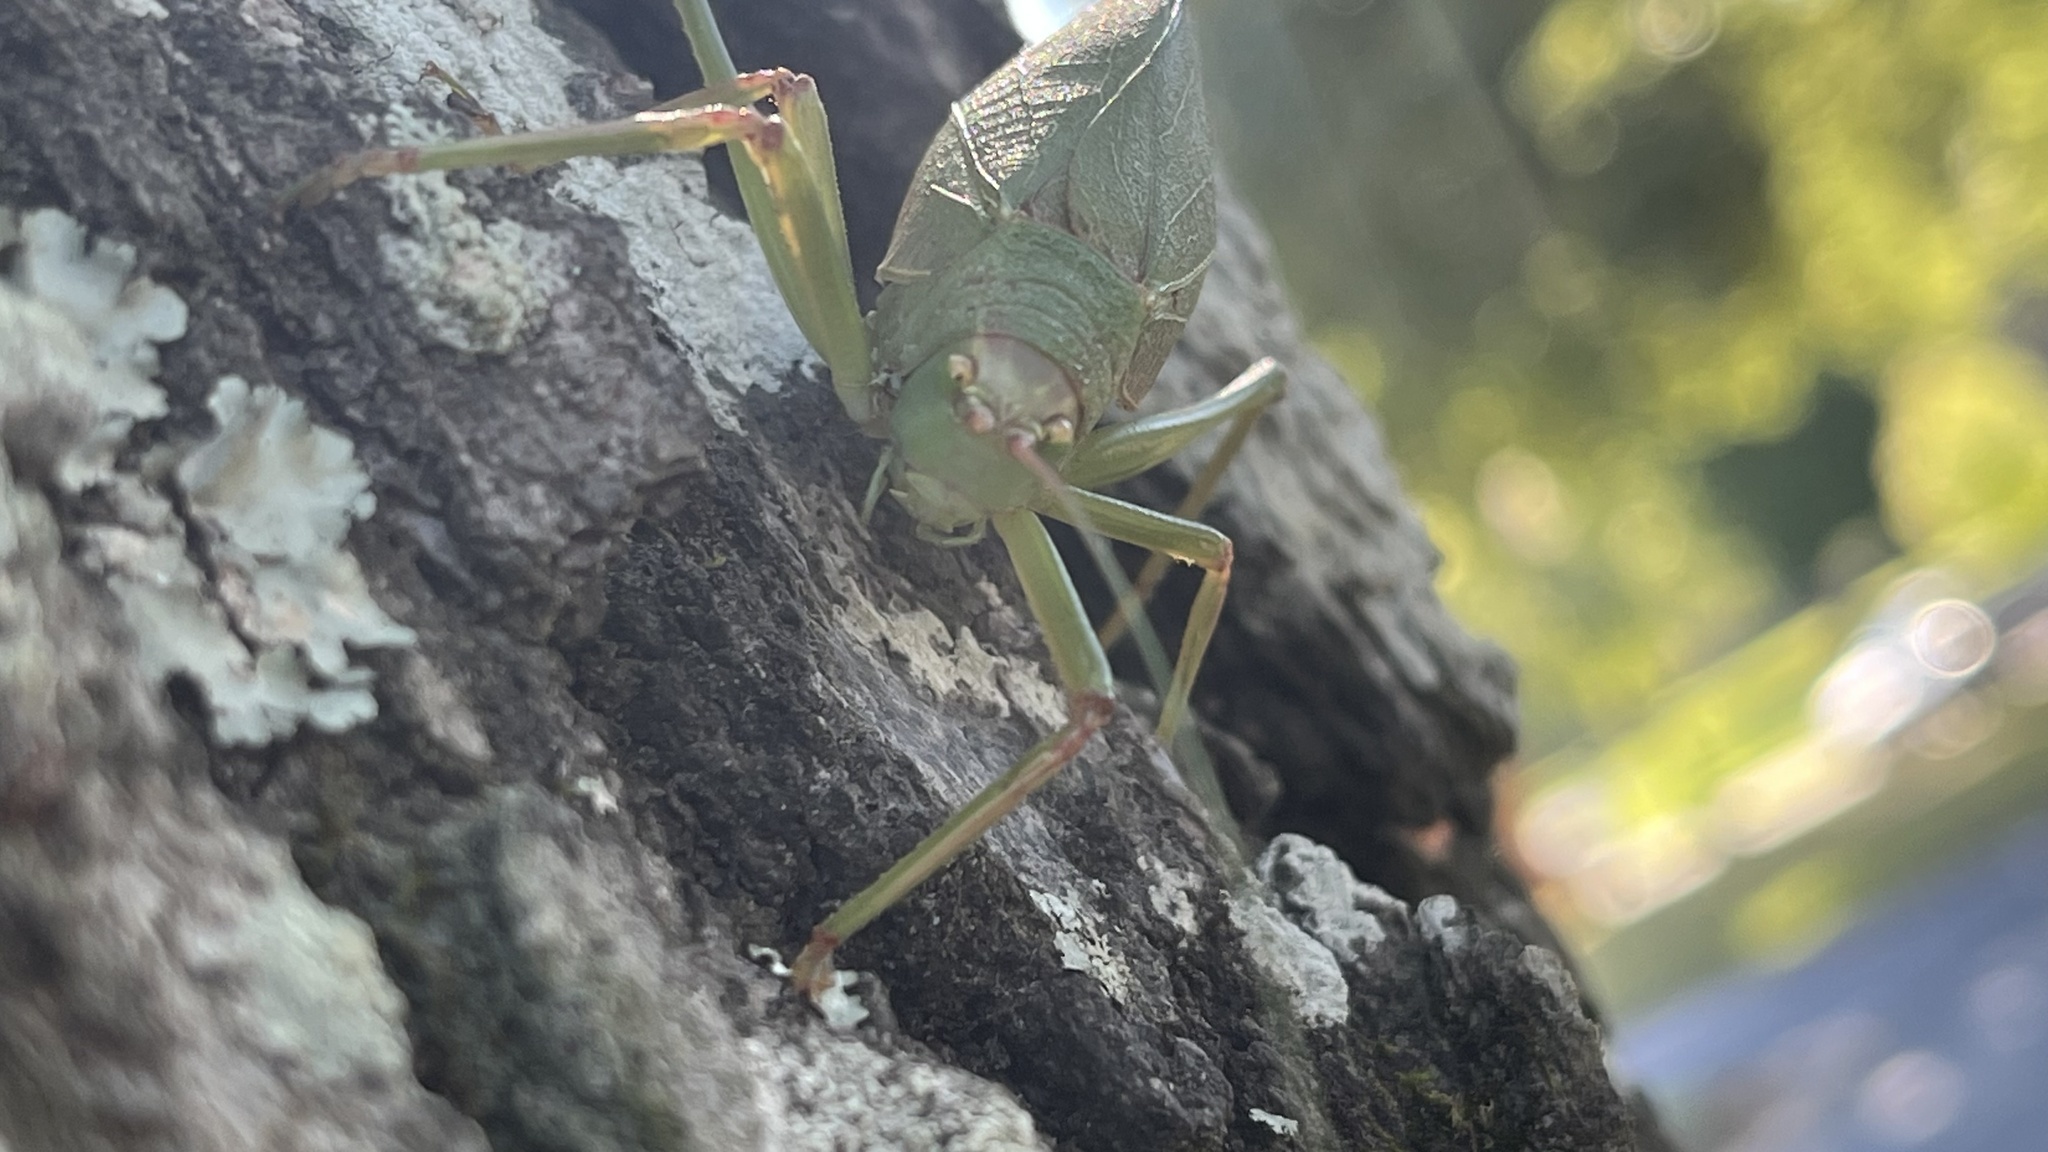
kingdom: Animalia
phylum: Arthropoda
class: Insecta
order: Orthoptera
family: Tettigoniidae
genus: Pterophylla
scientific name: Pterophylla camellifolia
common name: Common true katydid
